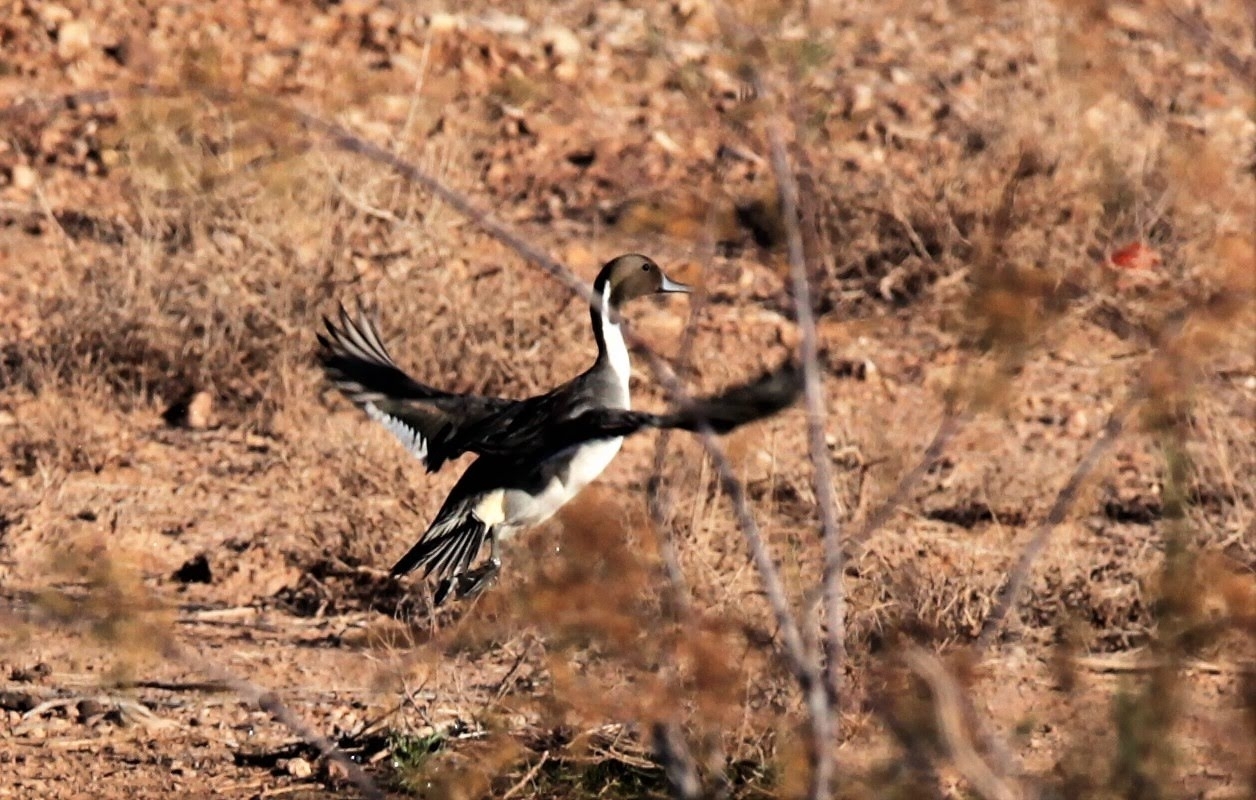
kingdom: Animalia
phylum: Chordata
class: Aves
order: Anseriformes
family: Anatidae
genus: Anas
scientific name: Anas acuta
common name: Northern pintail
